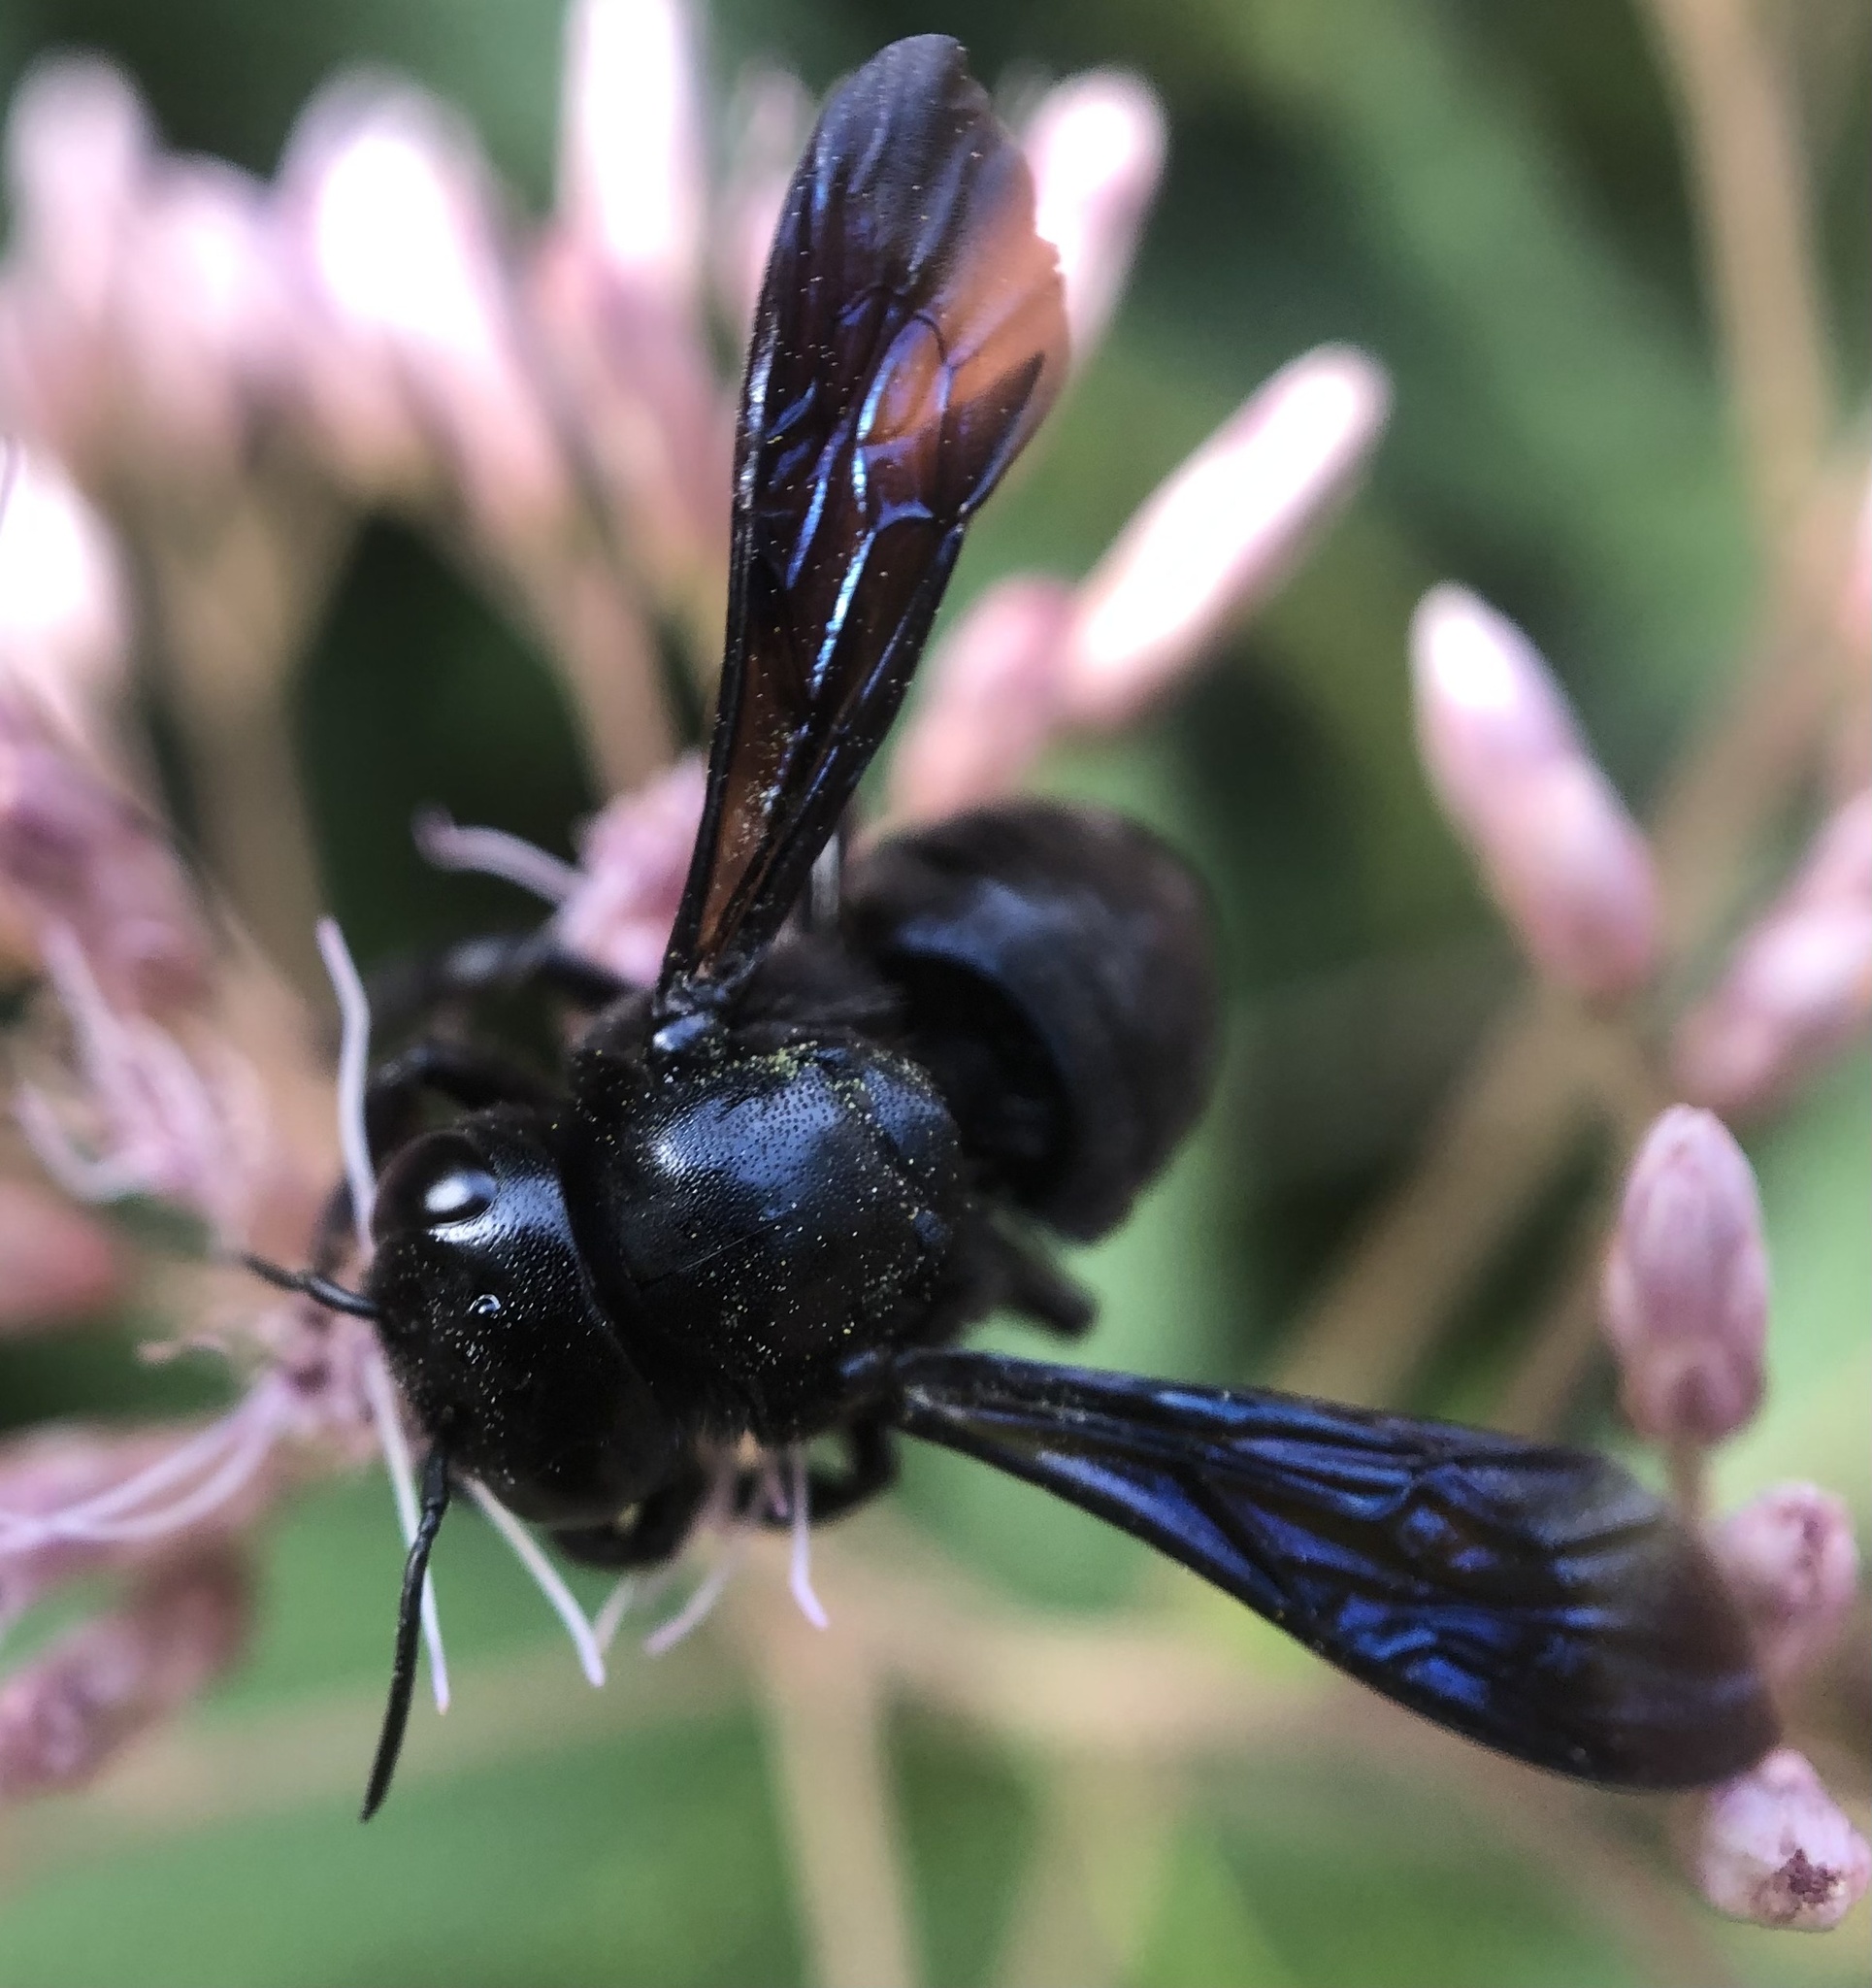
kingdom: Animalia
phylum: Arthropoda
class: Insecta
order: Hymenoptera
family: Megachilidae
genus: Megachile
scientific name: Megachile xylocopoides
